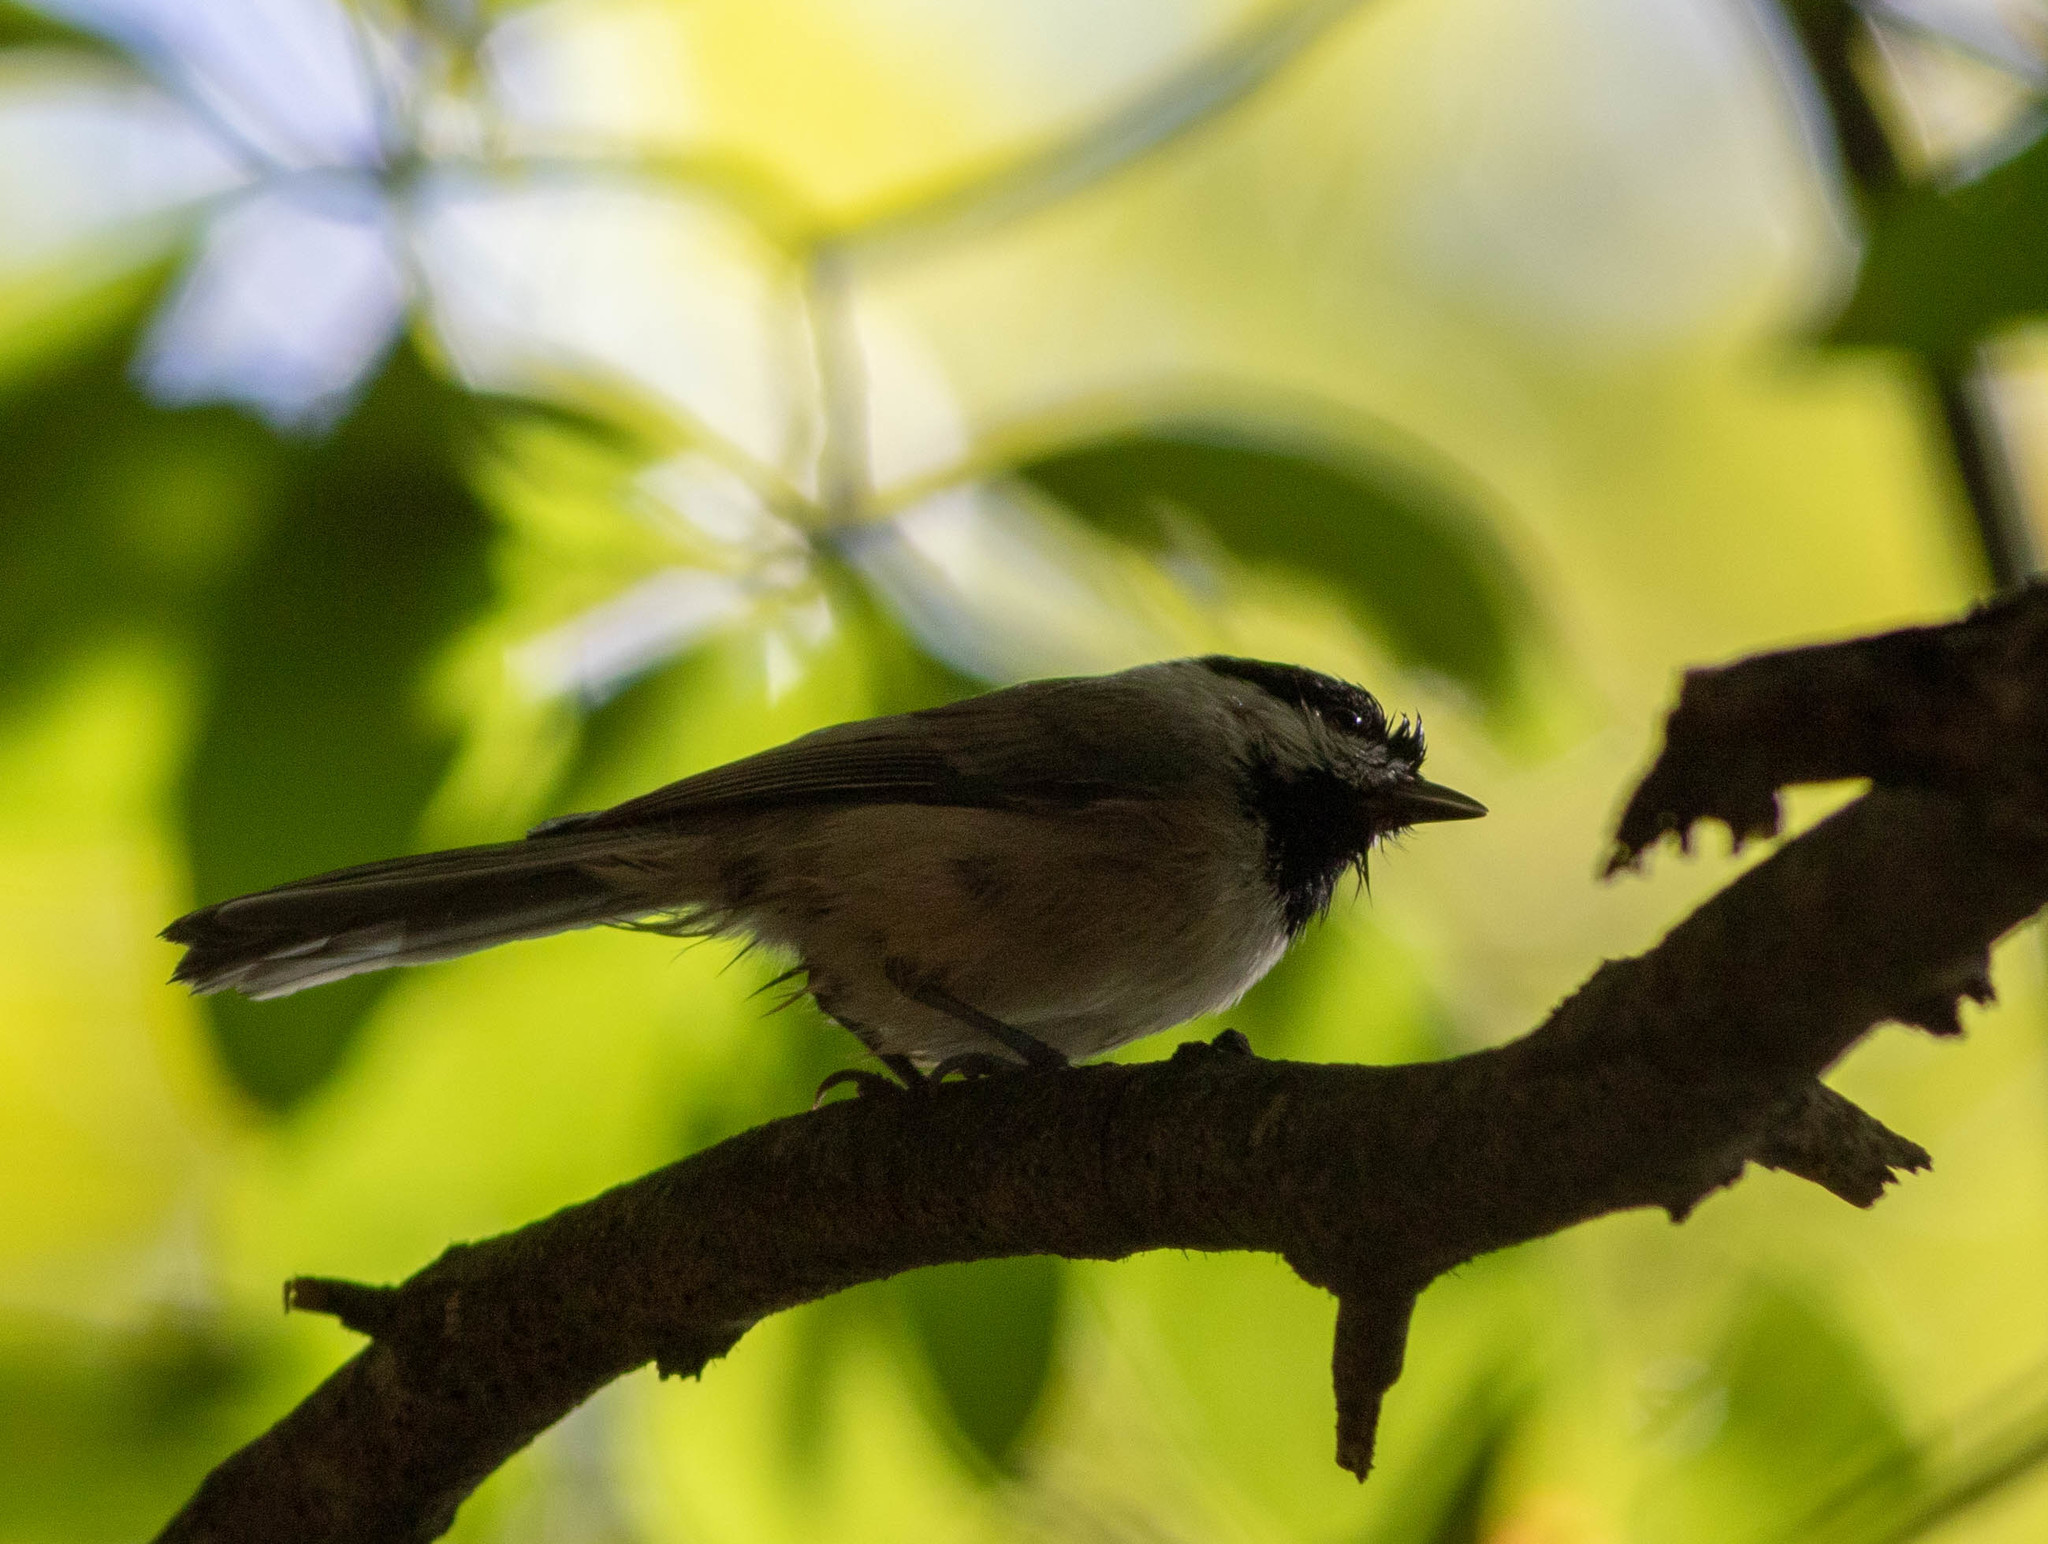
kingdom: Animalia
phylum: Chordata
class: Aves
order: Passeriformes
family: Paridae
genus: Poecile
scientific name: Poecile carolinensis
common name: Carolina chickadee
